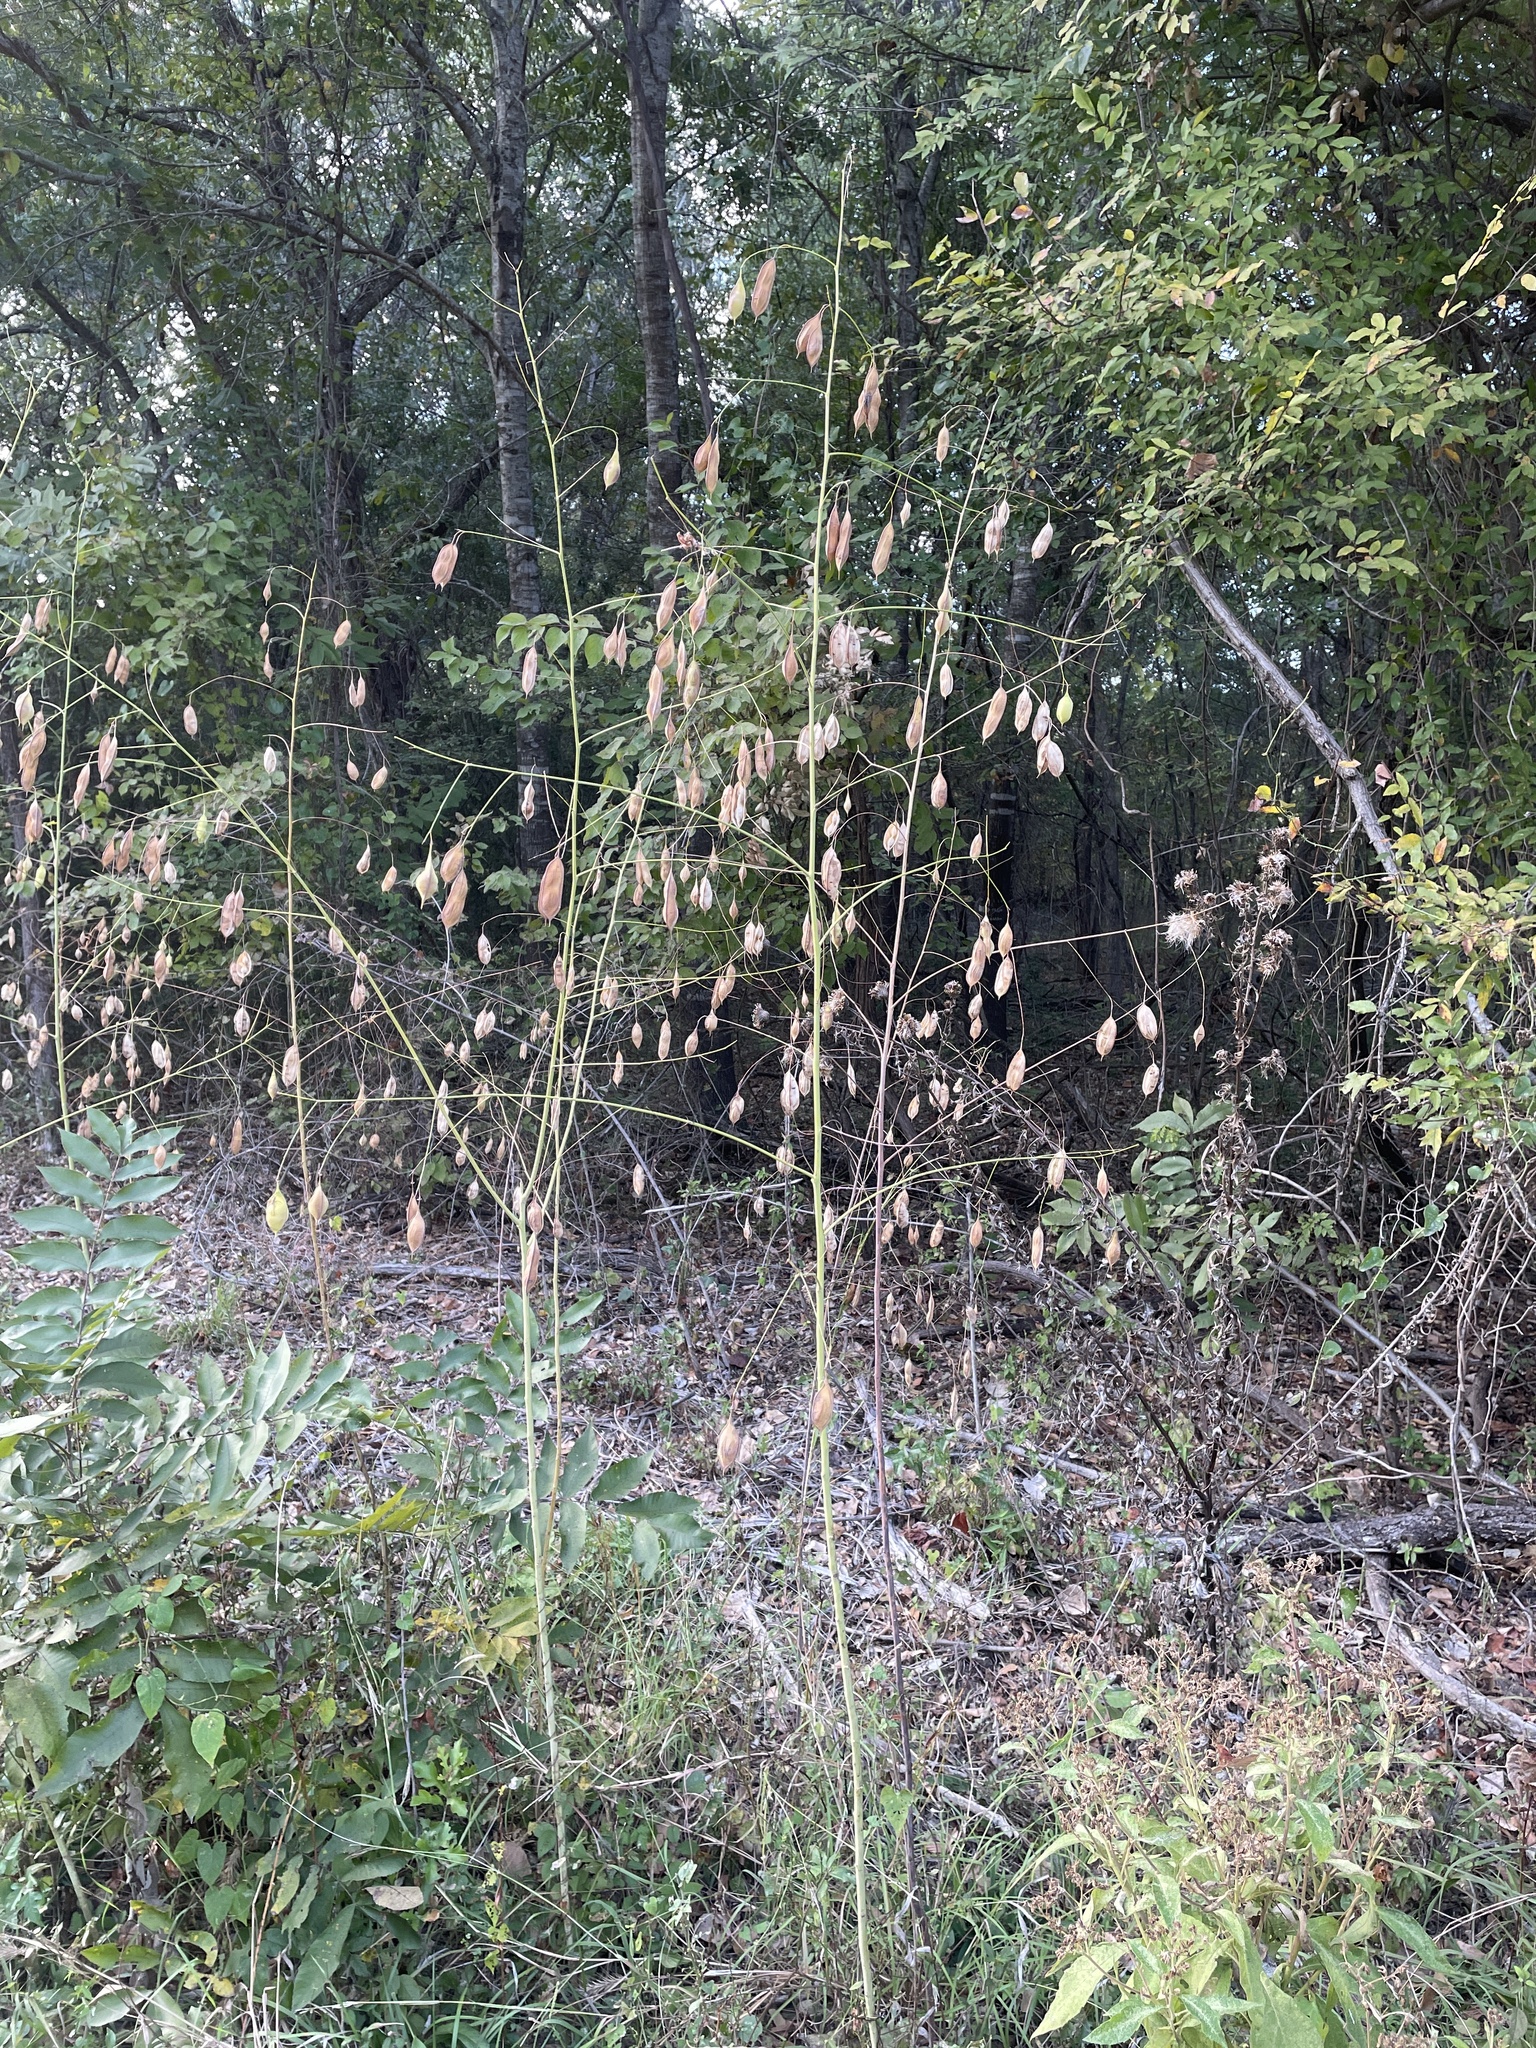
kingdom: Plantae
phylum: Tracheophyta
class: Magnoliopsida
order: Fabales
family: Fabaceae
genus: Sesbania
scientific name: Sesbania vesicaria
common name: Bagpod
